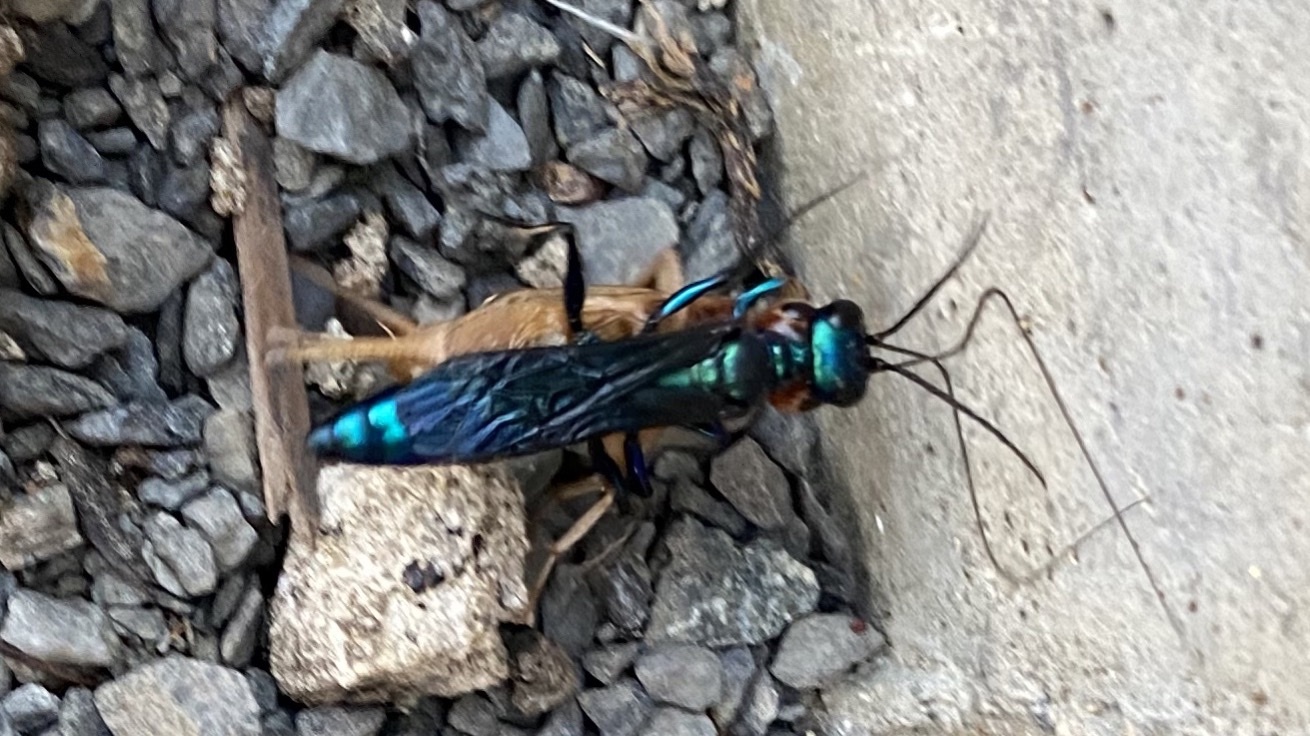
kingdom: Animalia
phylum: Arthropoda
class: Insecta
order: Hymenoptera
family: Sphecidae
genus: Chlorion
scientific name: Chlorion aerarium
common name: Steel-blue cricket hunter
